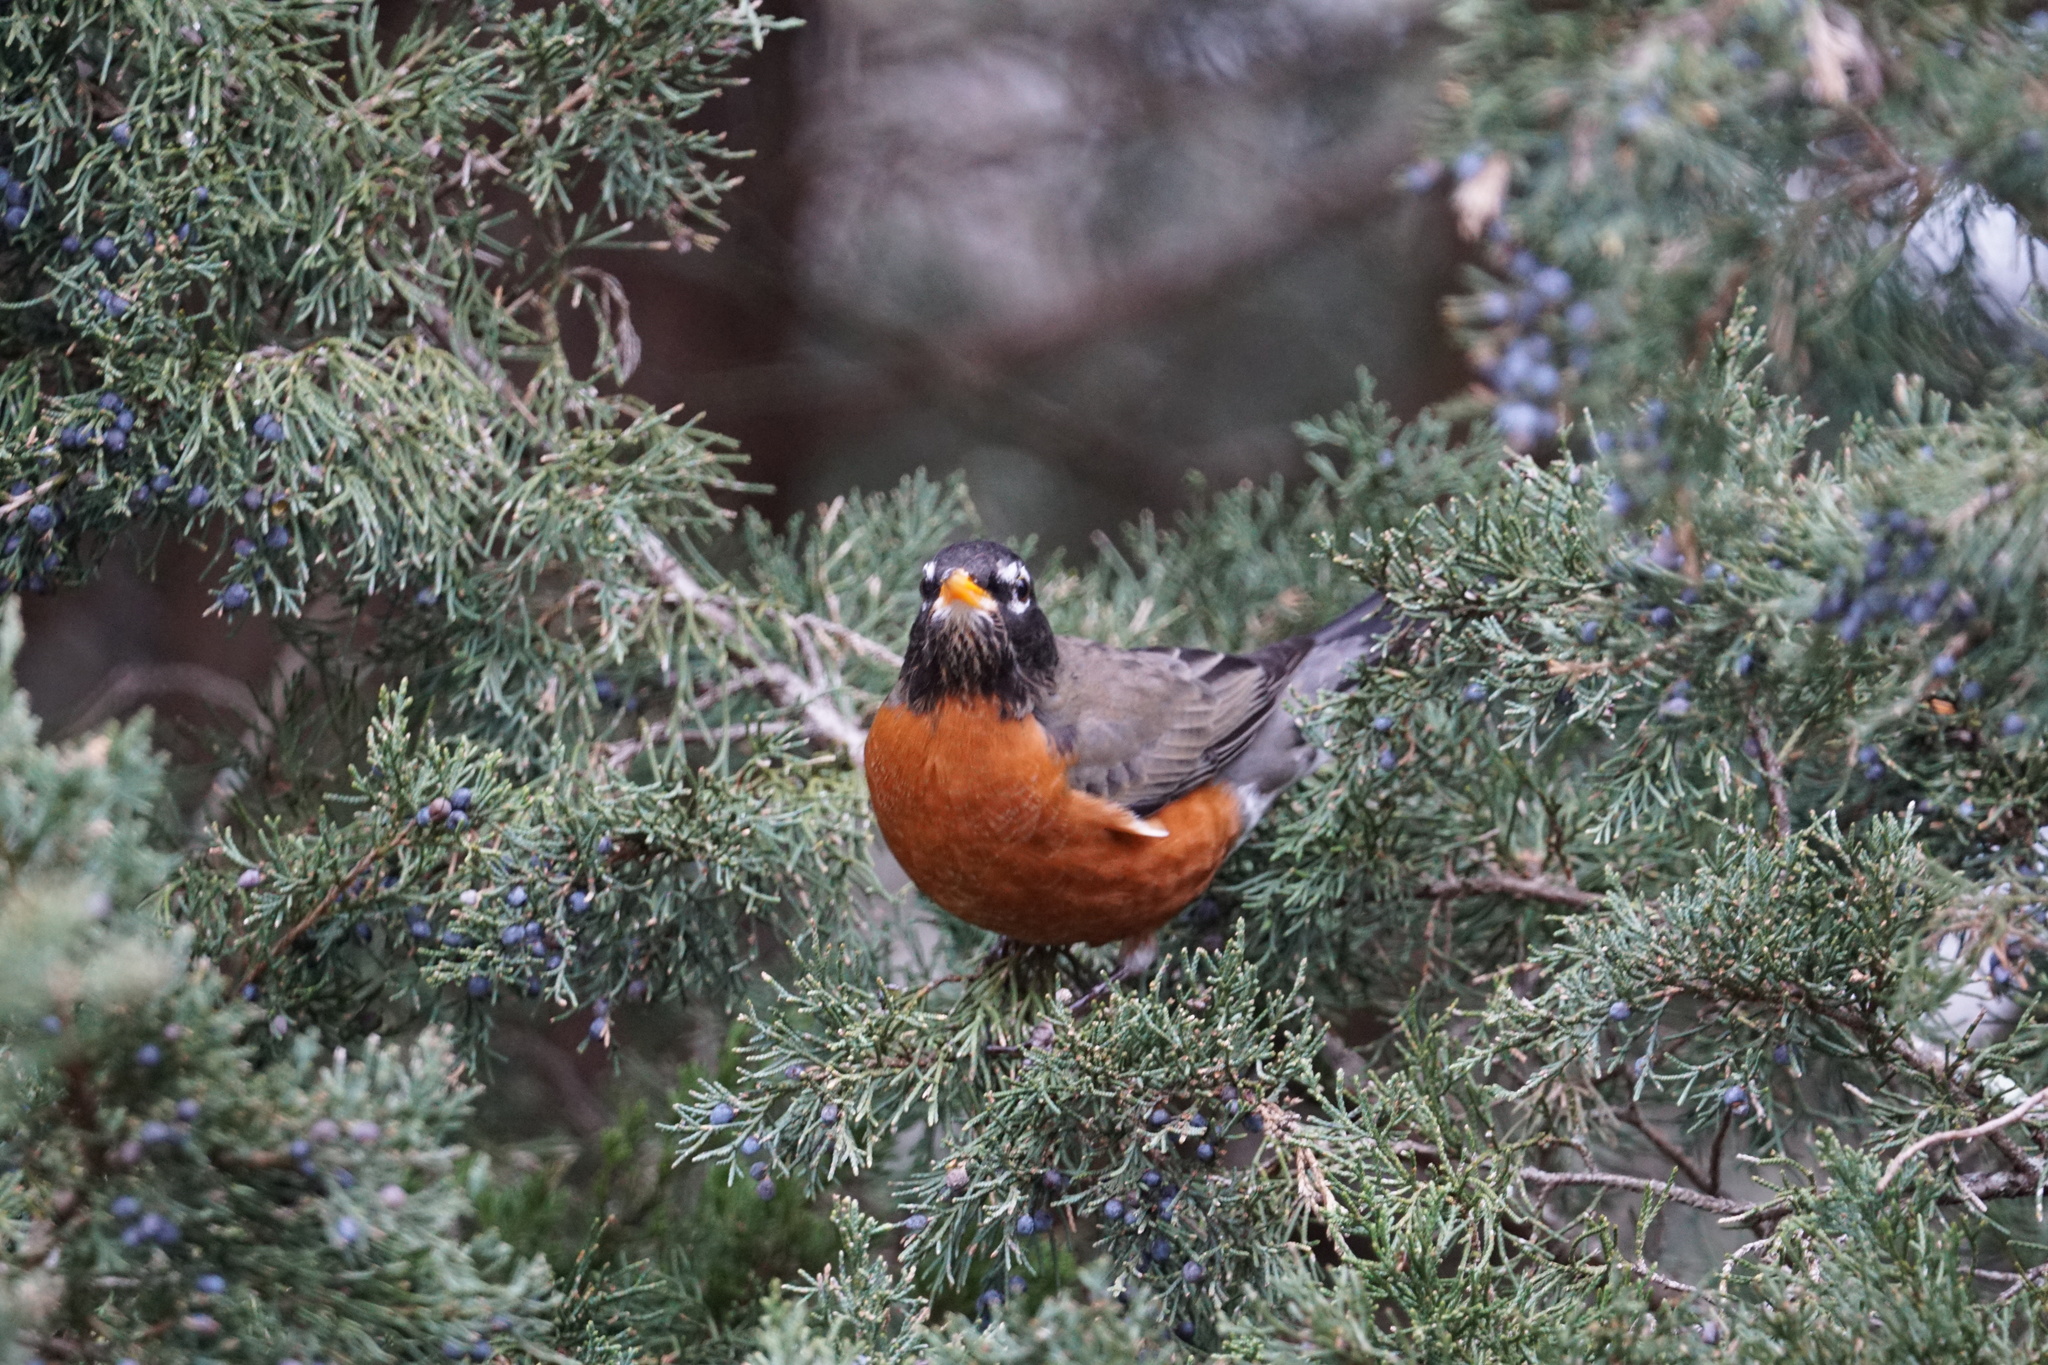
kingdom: Animalia
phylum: Chordata
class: Aves
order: Passeriformes
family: Turdidae
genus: Turdus
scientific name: Turdus migratorius
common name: American robin
